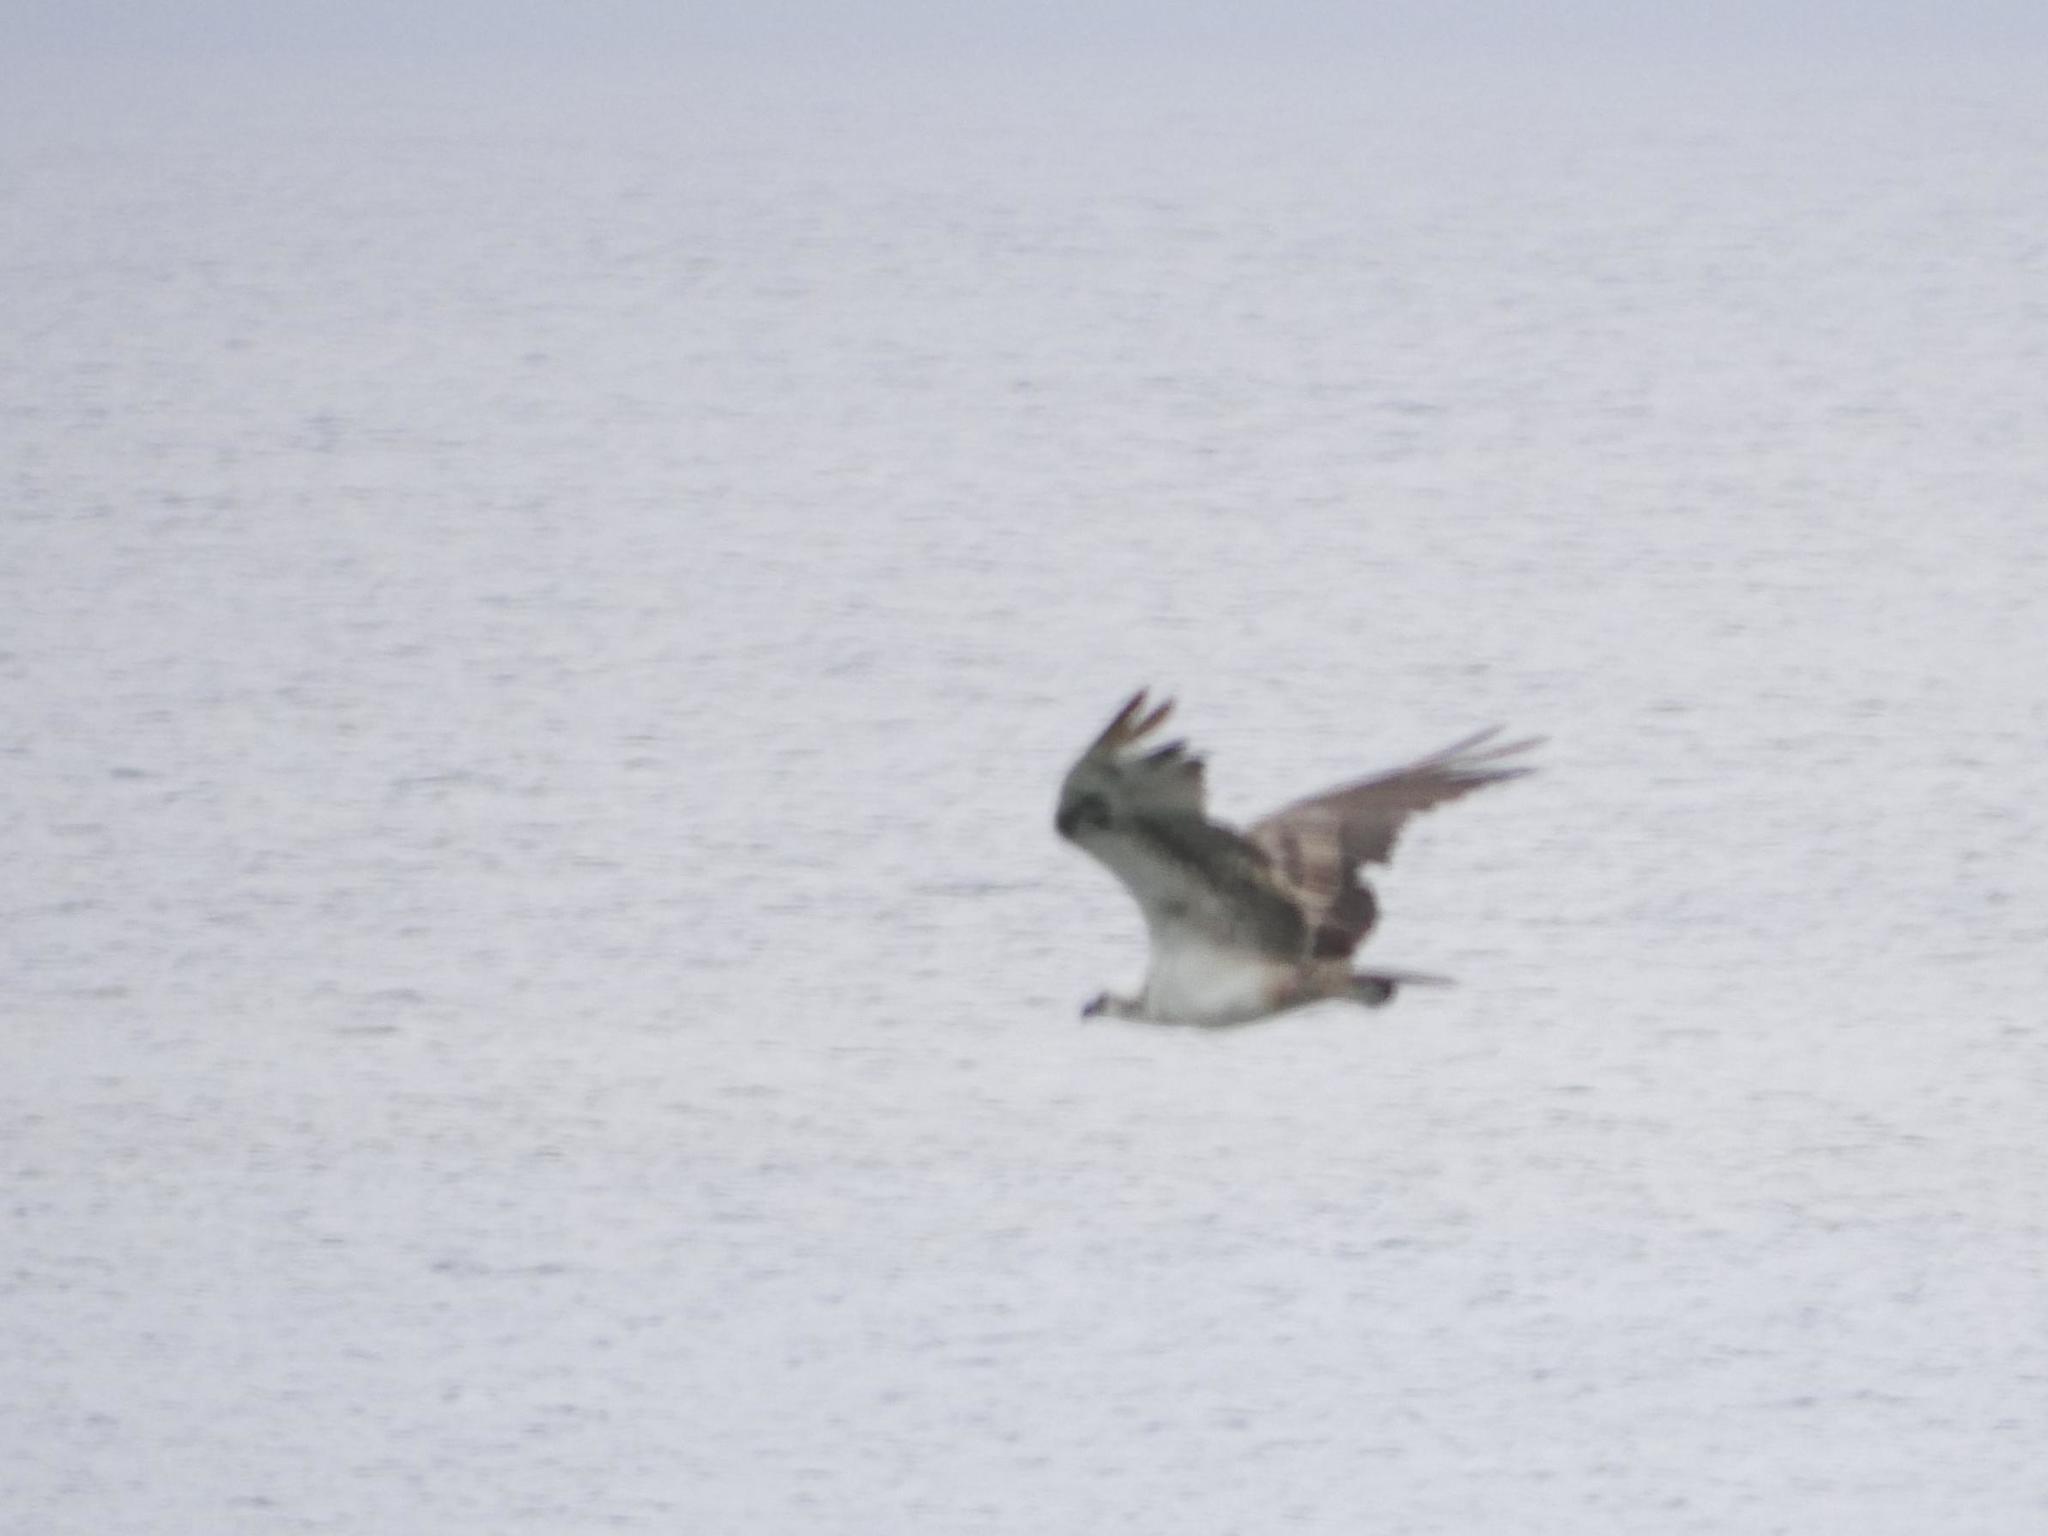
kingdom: Animalia
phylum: Chordata
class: Aves
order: Accipitriformes
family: Pandionidae
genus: Pandion
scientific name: Pandion haliaetus
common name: Osprey
